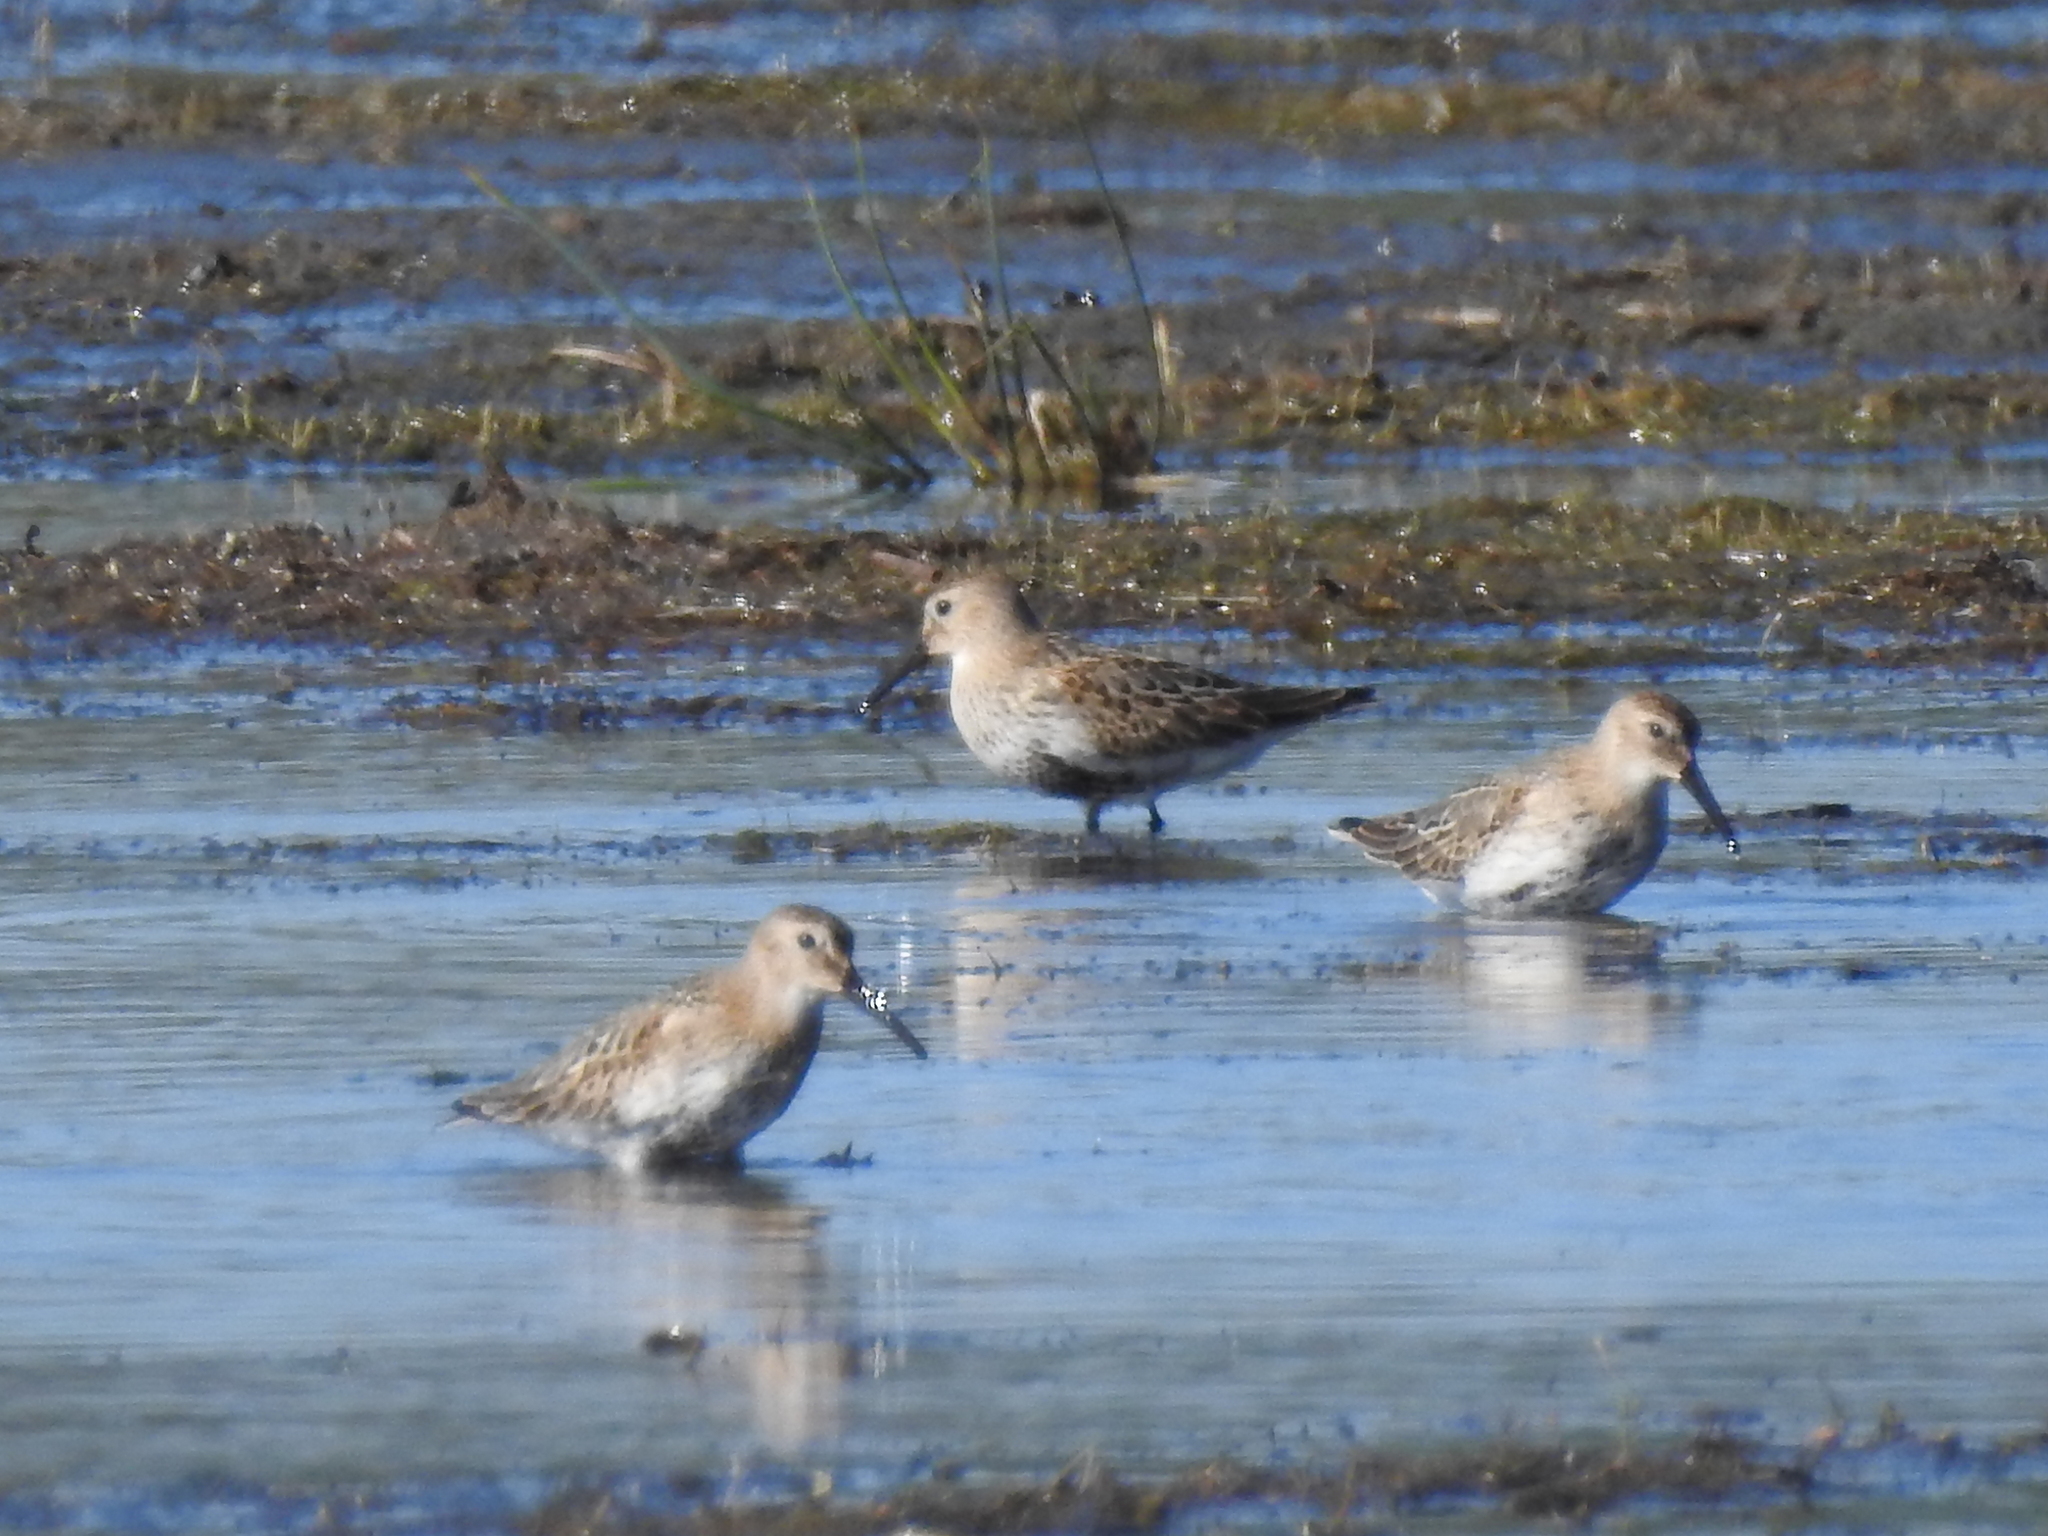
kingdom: Animalia
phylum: Chordata
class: Aves
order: Charadriiformes
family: Scolopacidae
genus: Calidris
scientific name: Calidris alpina
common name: Dunlin
